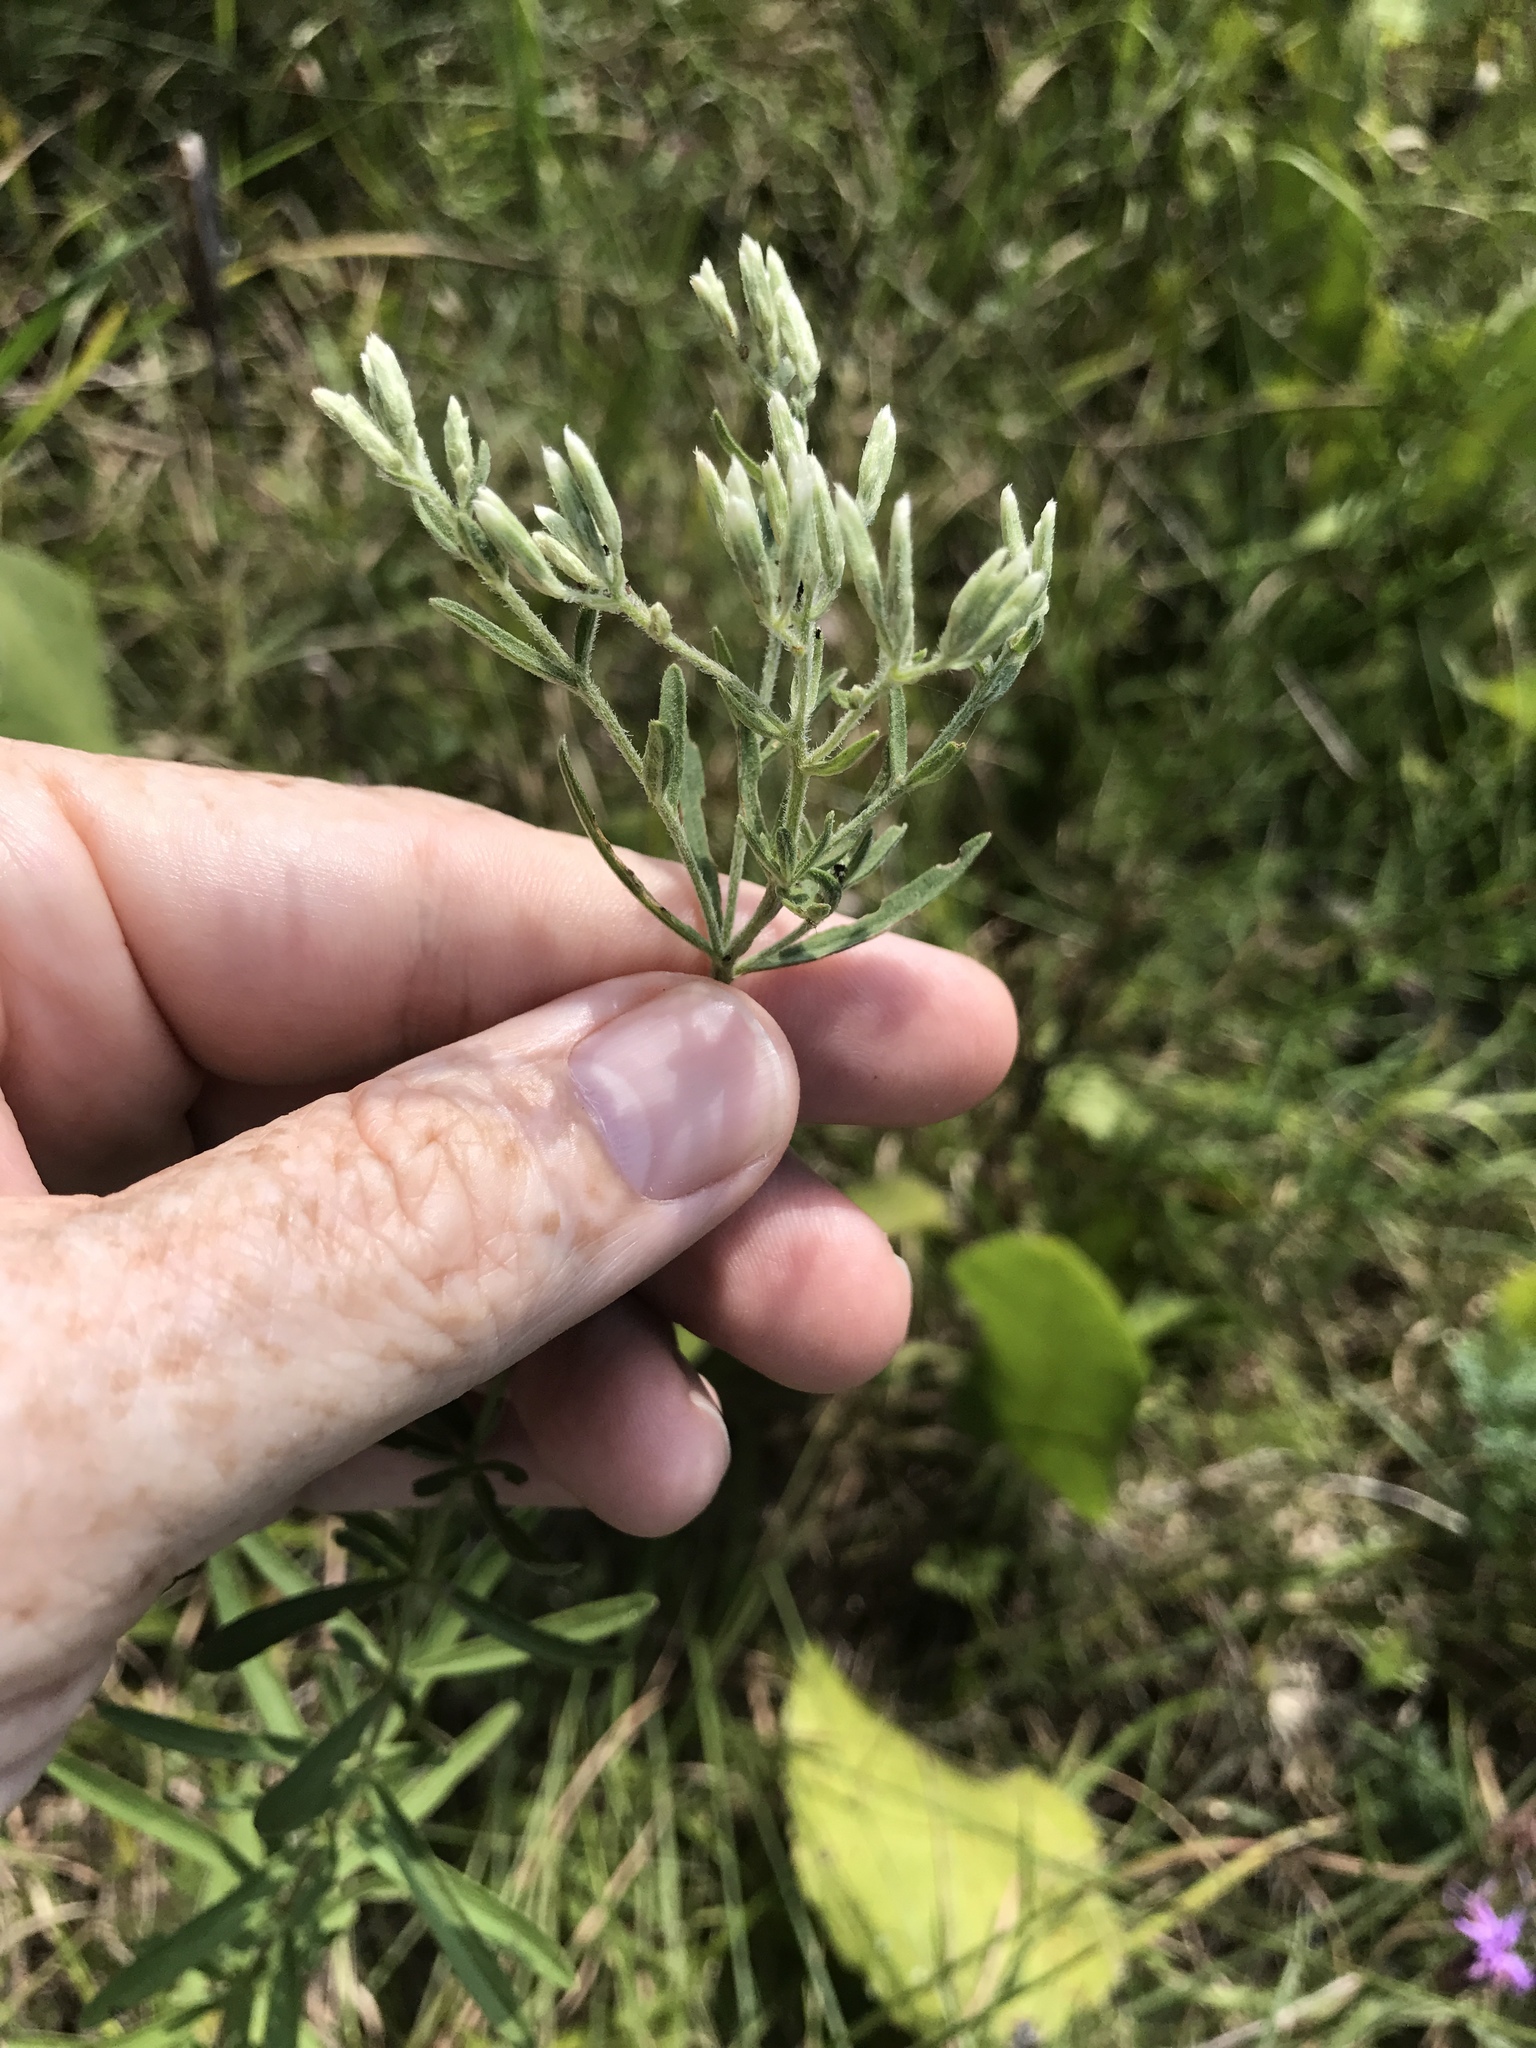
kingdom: Plantae
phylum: Tracheophyta
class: Magnoliopsida
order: Asterales
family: Asteraceae
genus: Eupatorium
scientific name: Eupatorium torreyanum
